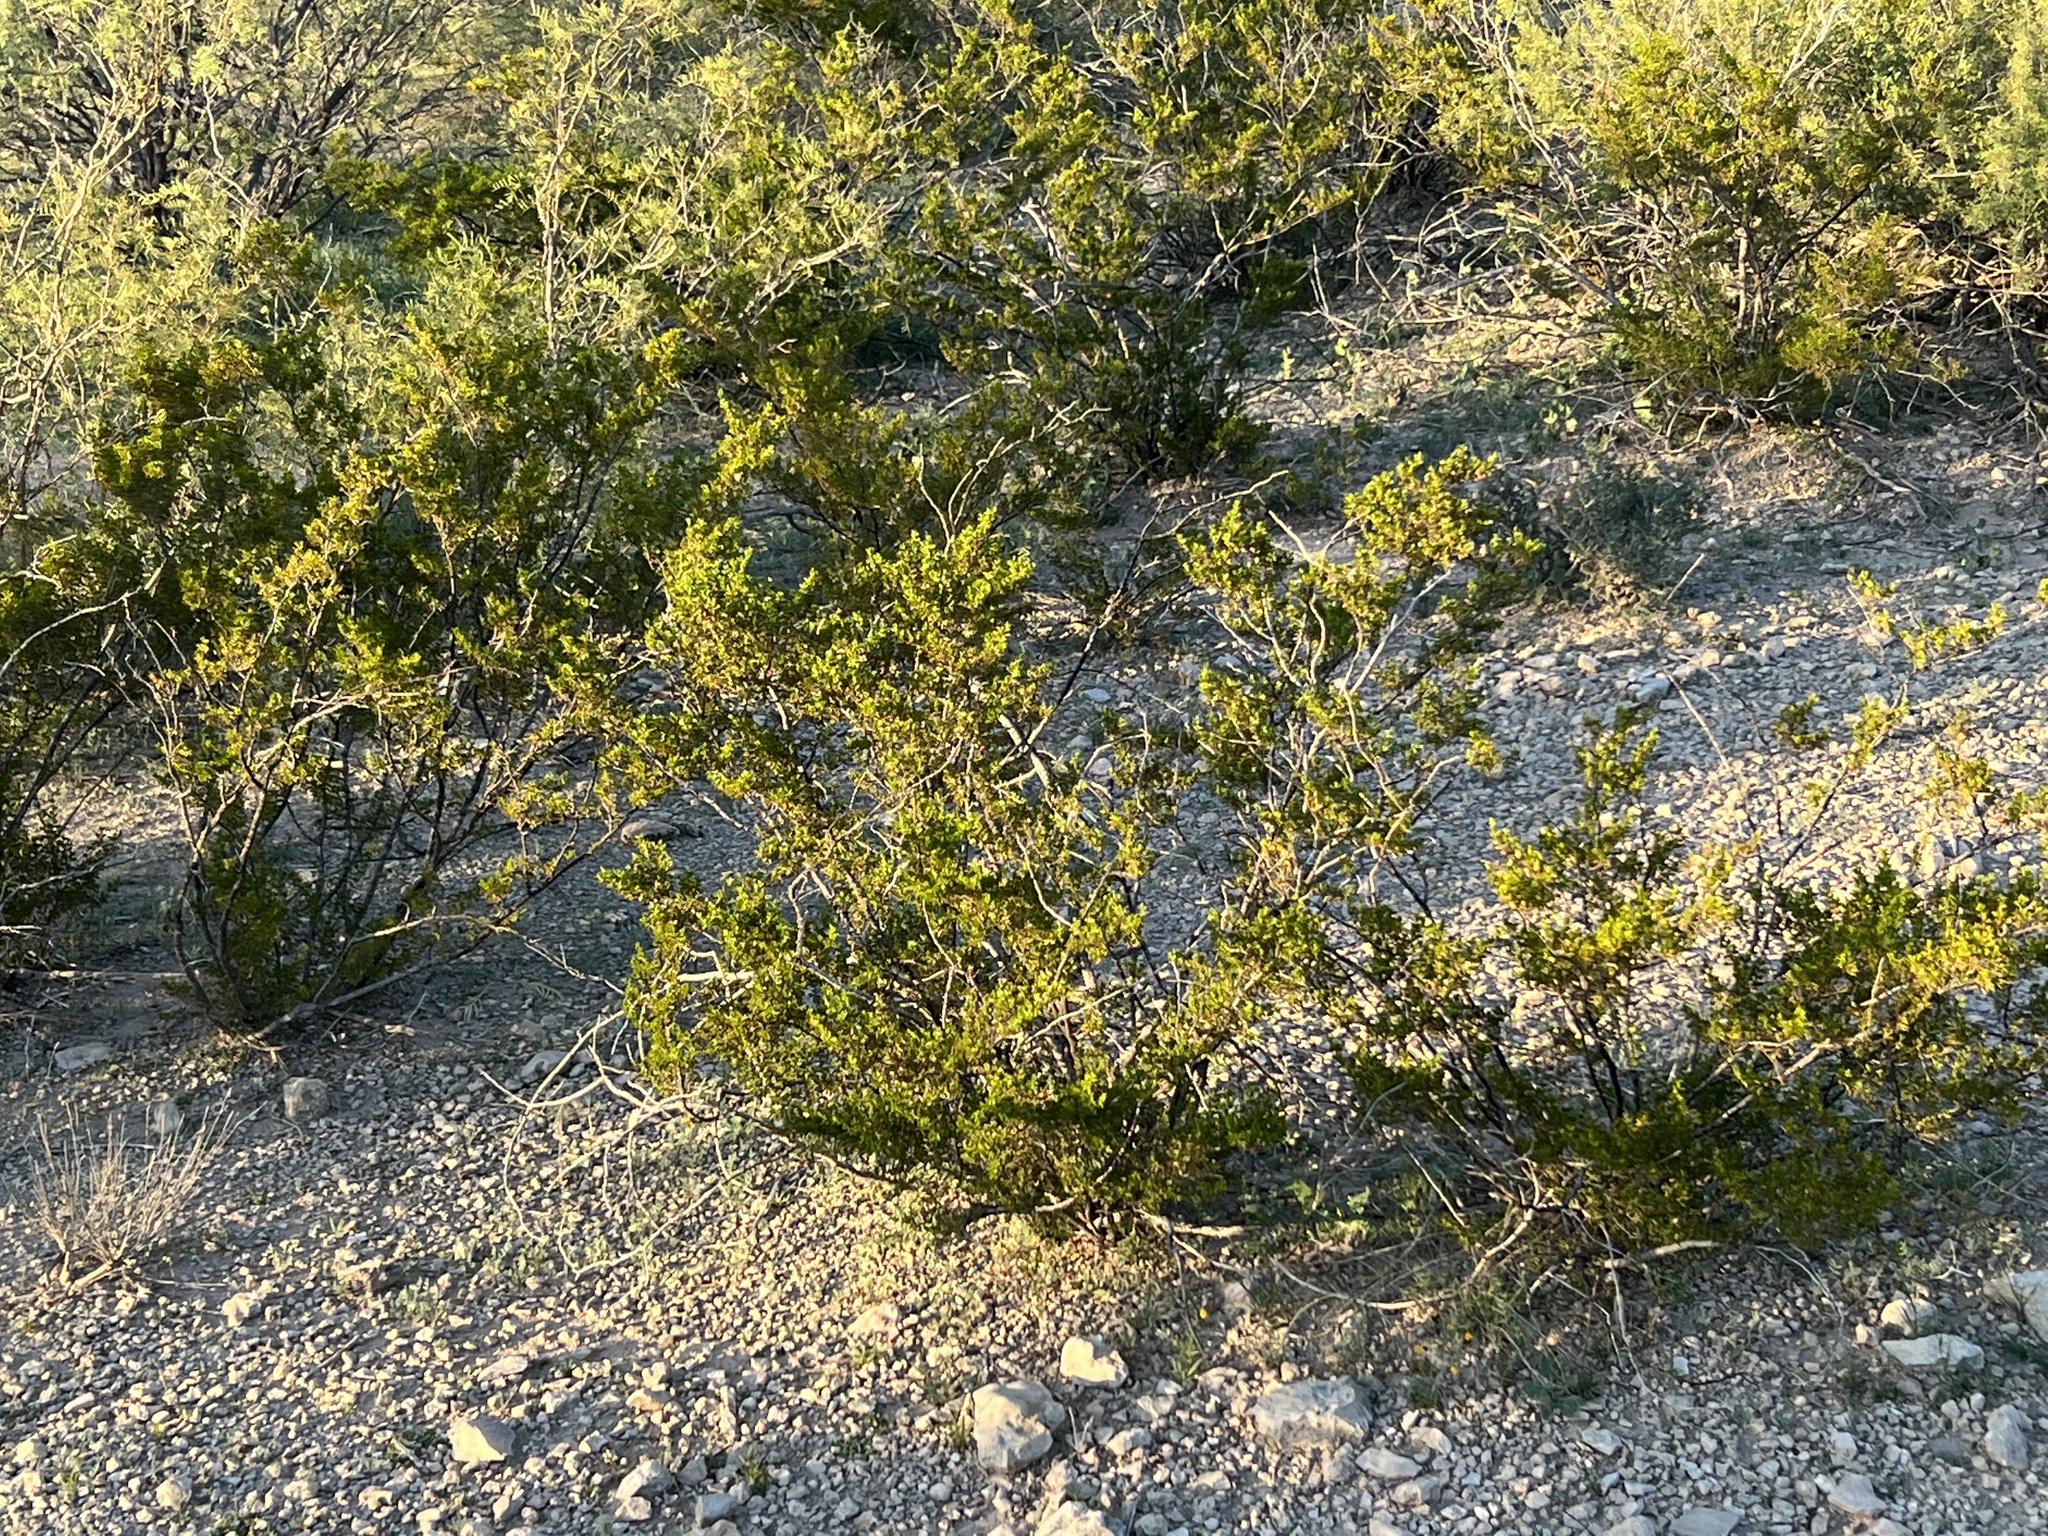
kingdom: Plantae
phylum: Tracheophyta
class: Magnoliopsida
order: Zygophyllales
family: Zygophyllaceae
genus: Larrea
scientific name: Larrea tridentata
